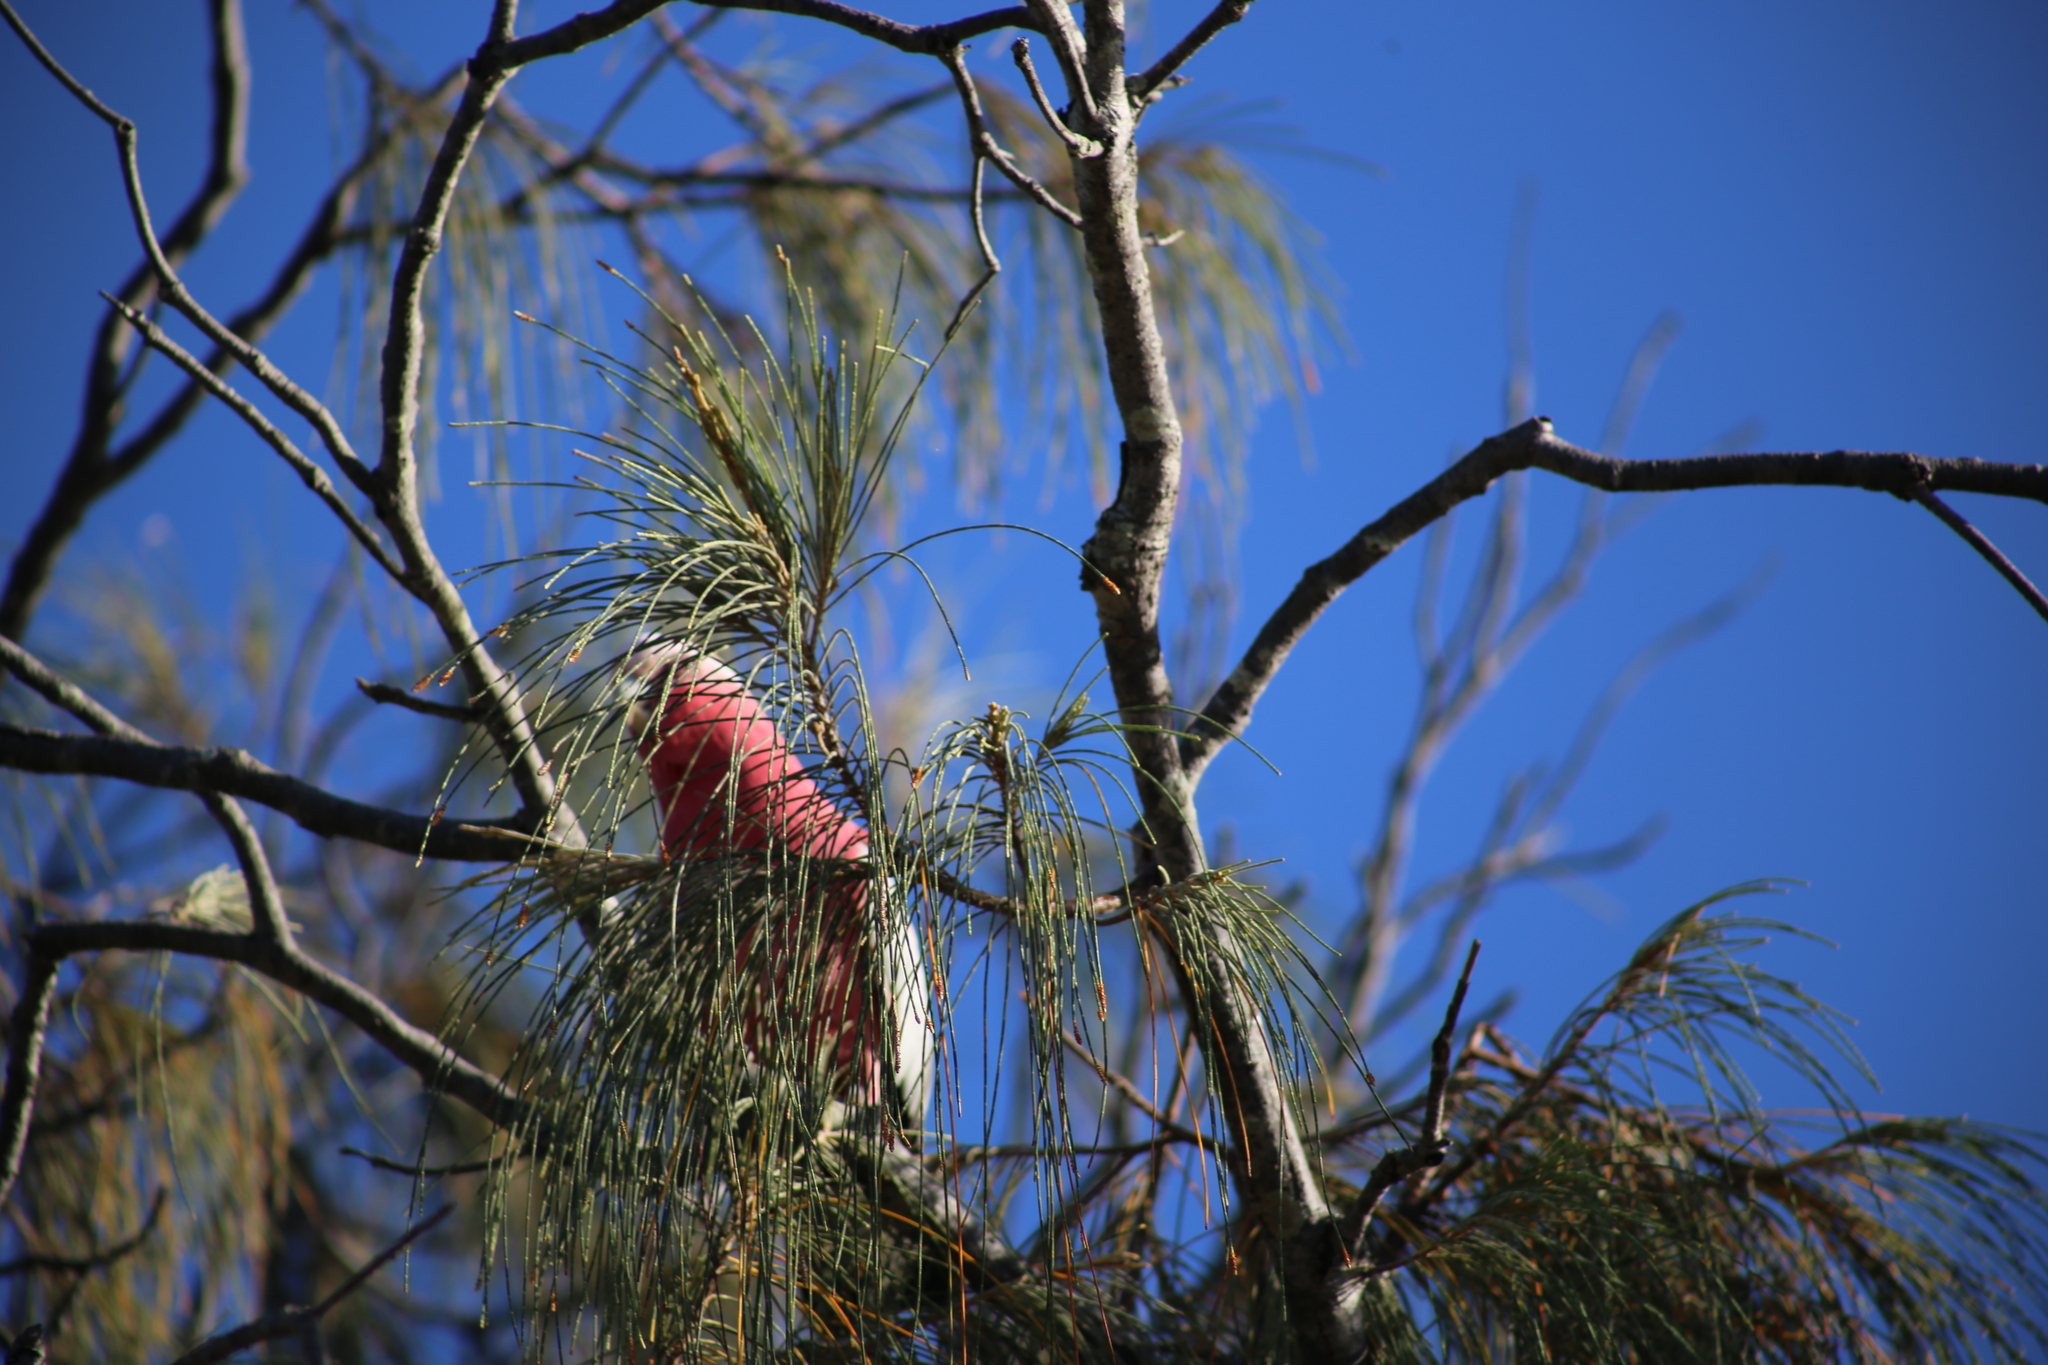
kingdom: Animalia
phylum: Chordata
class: Aves
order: Psittaciformes
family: Psittacidae
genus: Eolophus
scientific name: Eolophus roseicapilla
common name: Galah
